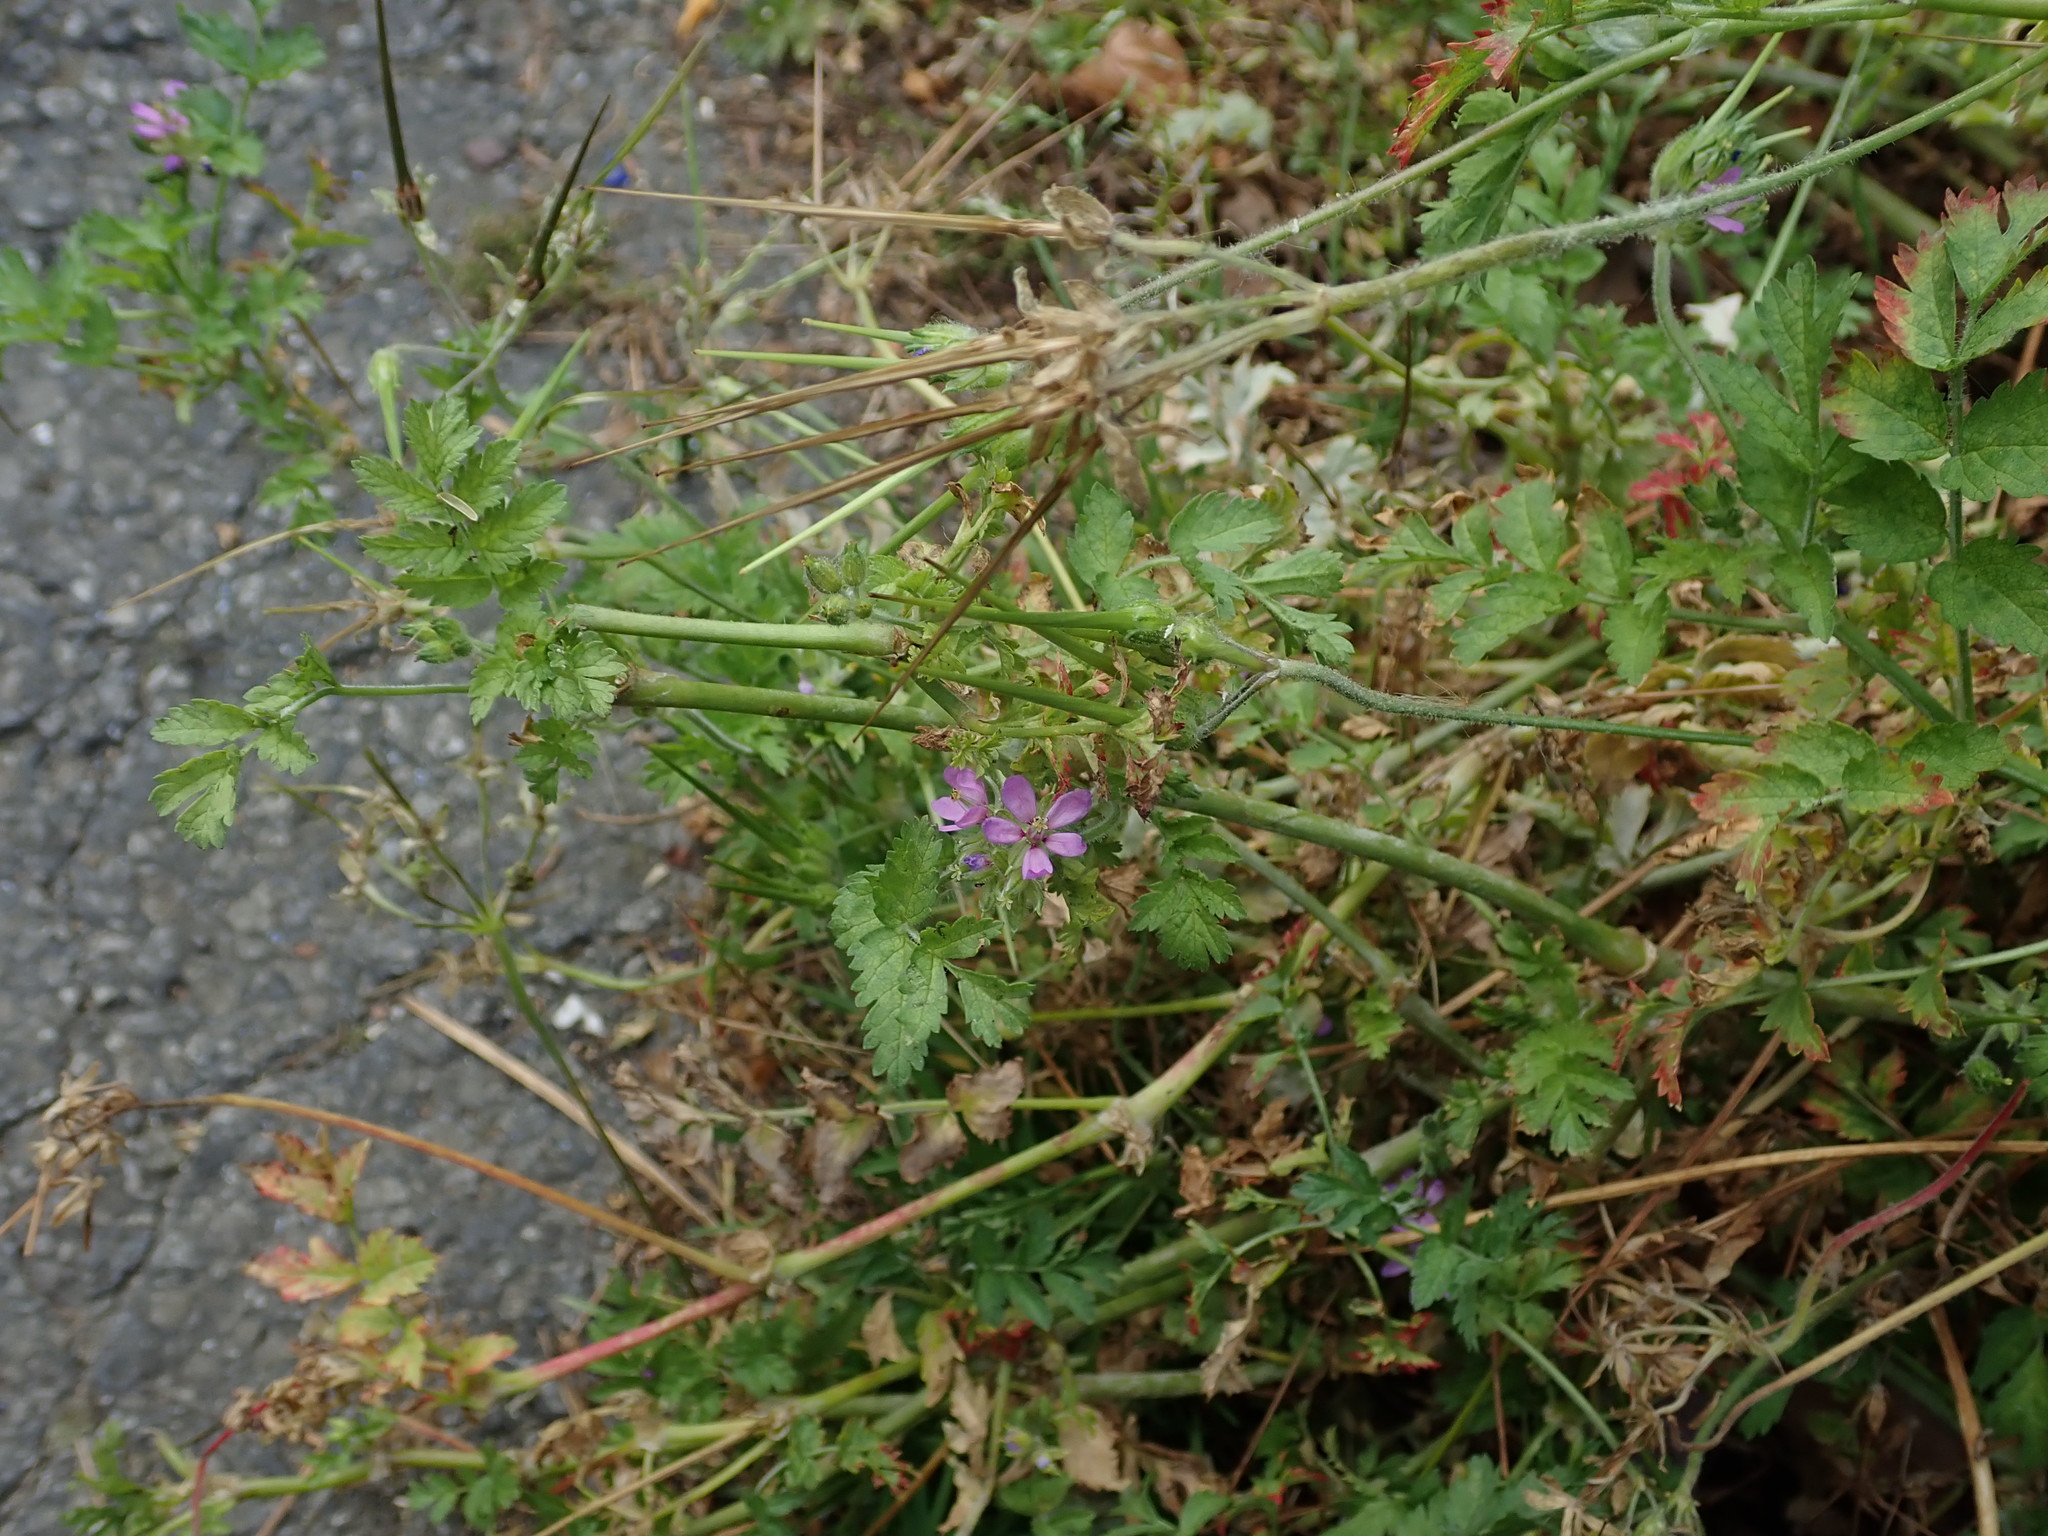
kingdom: Plantae
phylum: Tracheophyta
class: Magnoliopsida
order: Geraniales
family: Geraniaceae
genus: Erodium
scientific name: Erodium moschatum
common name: Musk stork's-bill
